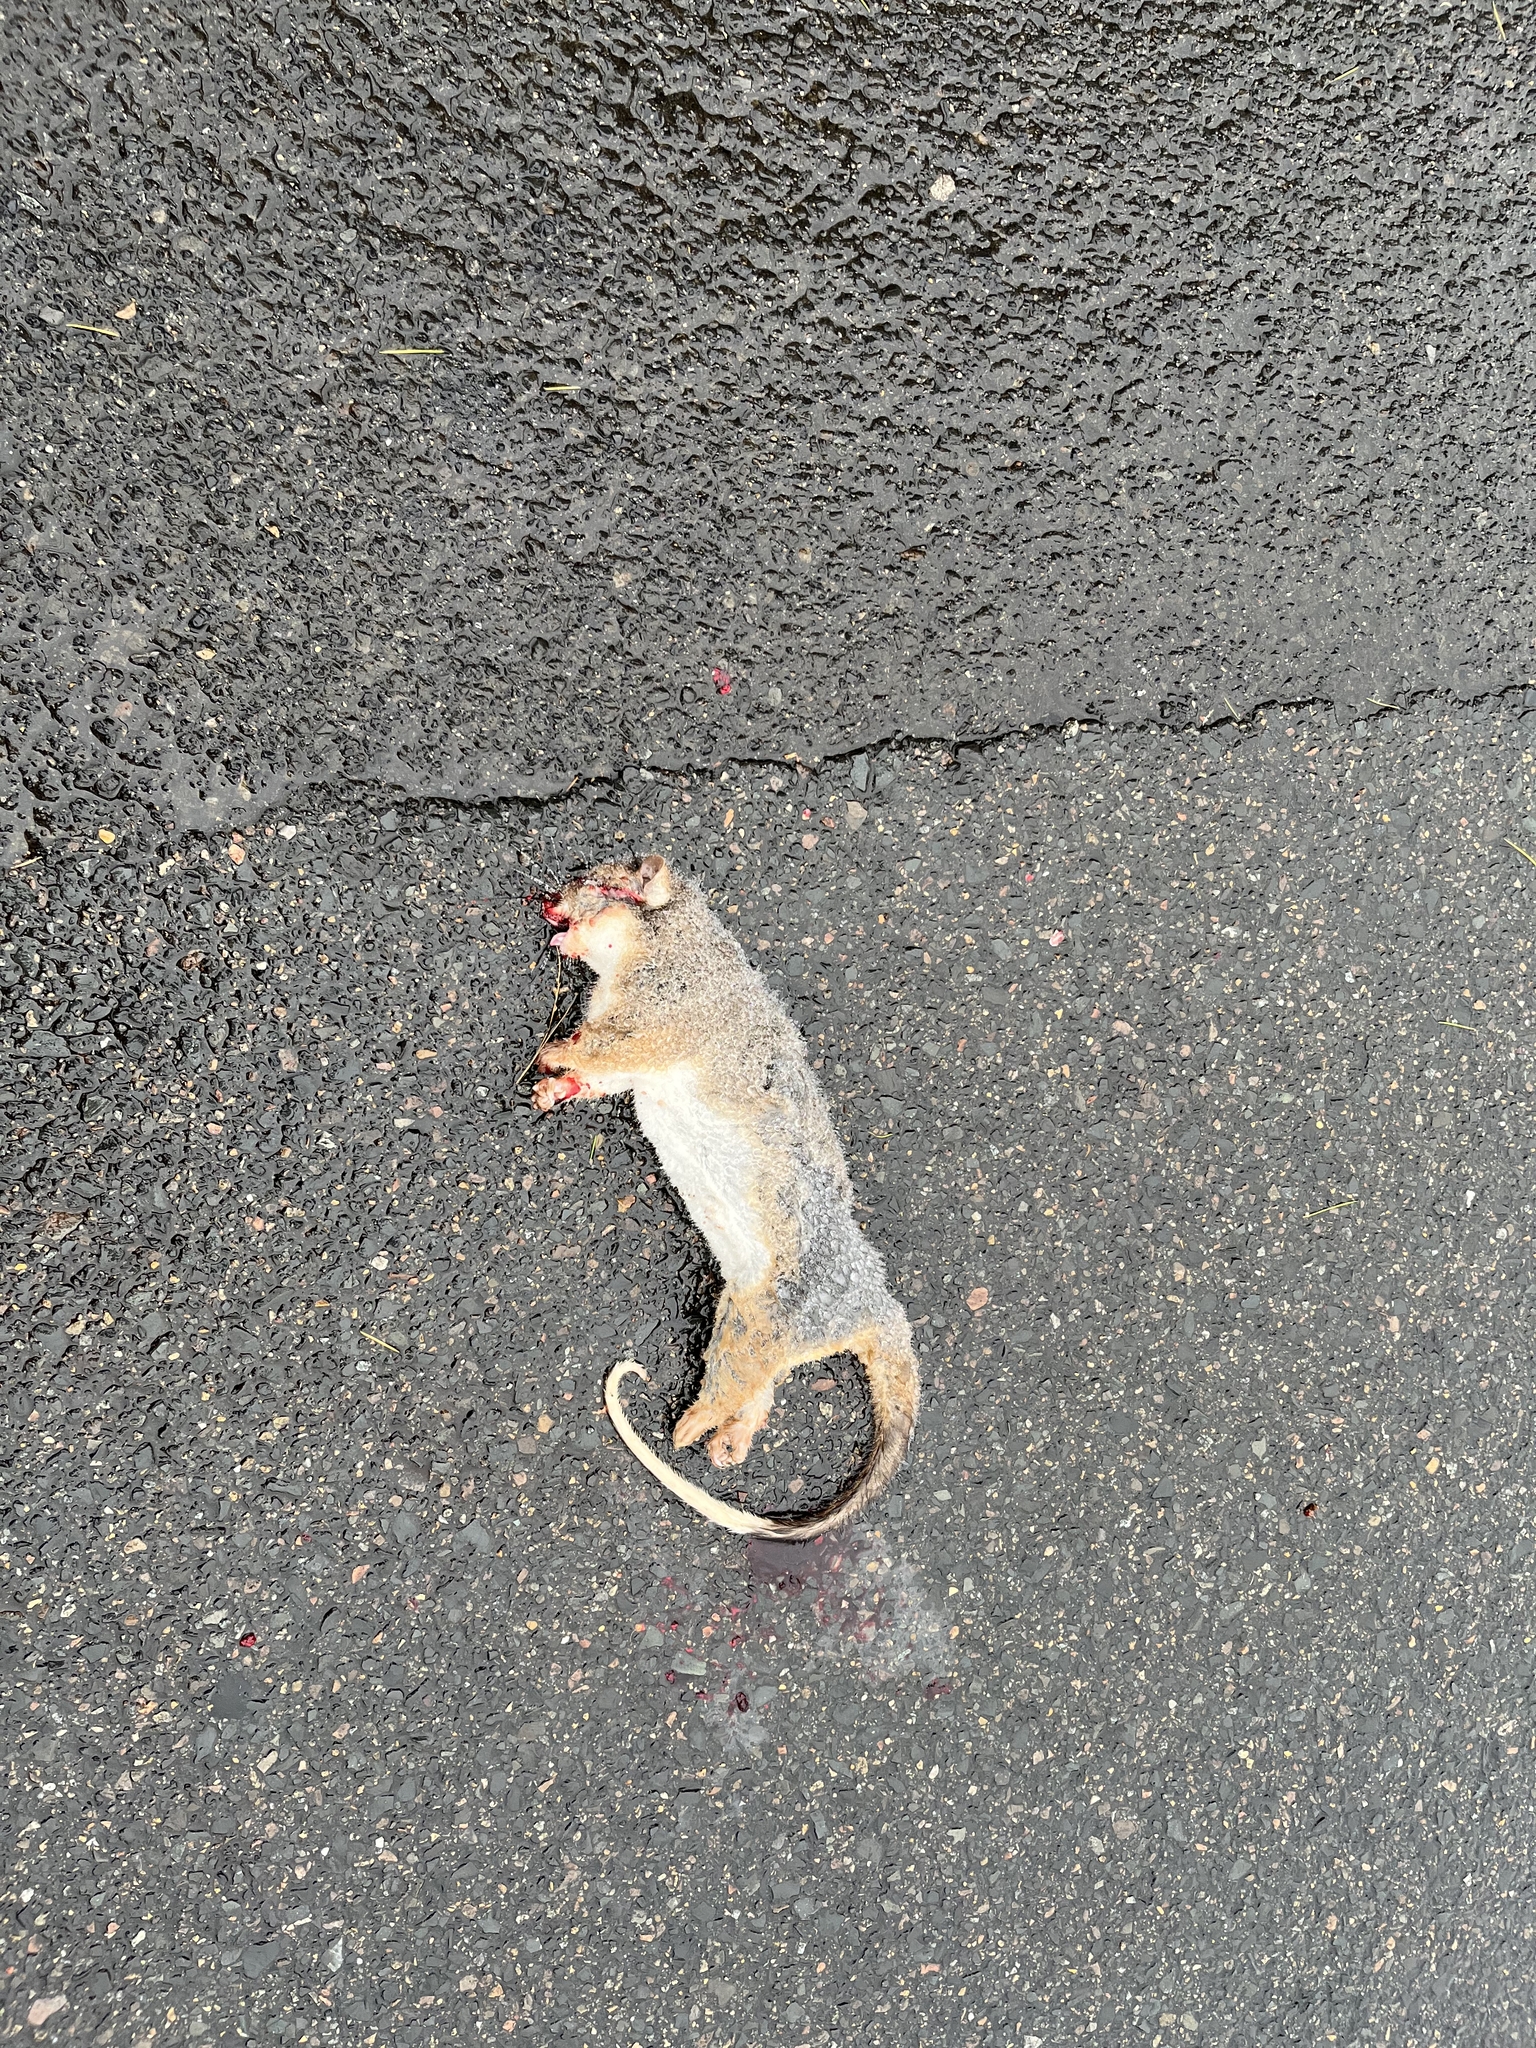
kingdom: Animalia
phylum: Chordata
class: Mammalia
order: Diprotodontia
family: Pseudocheiridae
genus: Pseudocheirus
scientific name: Pseudocheirus peregrinus
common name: Common ringtail possum
